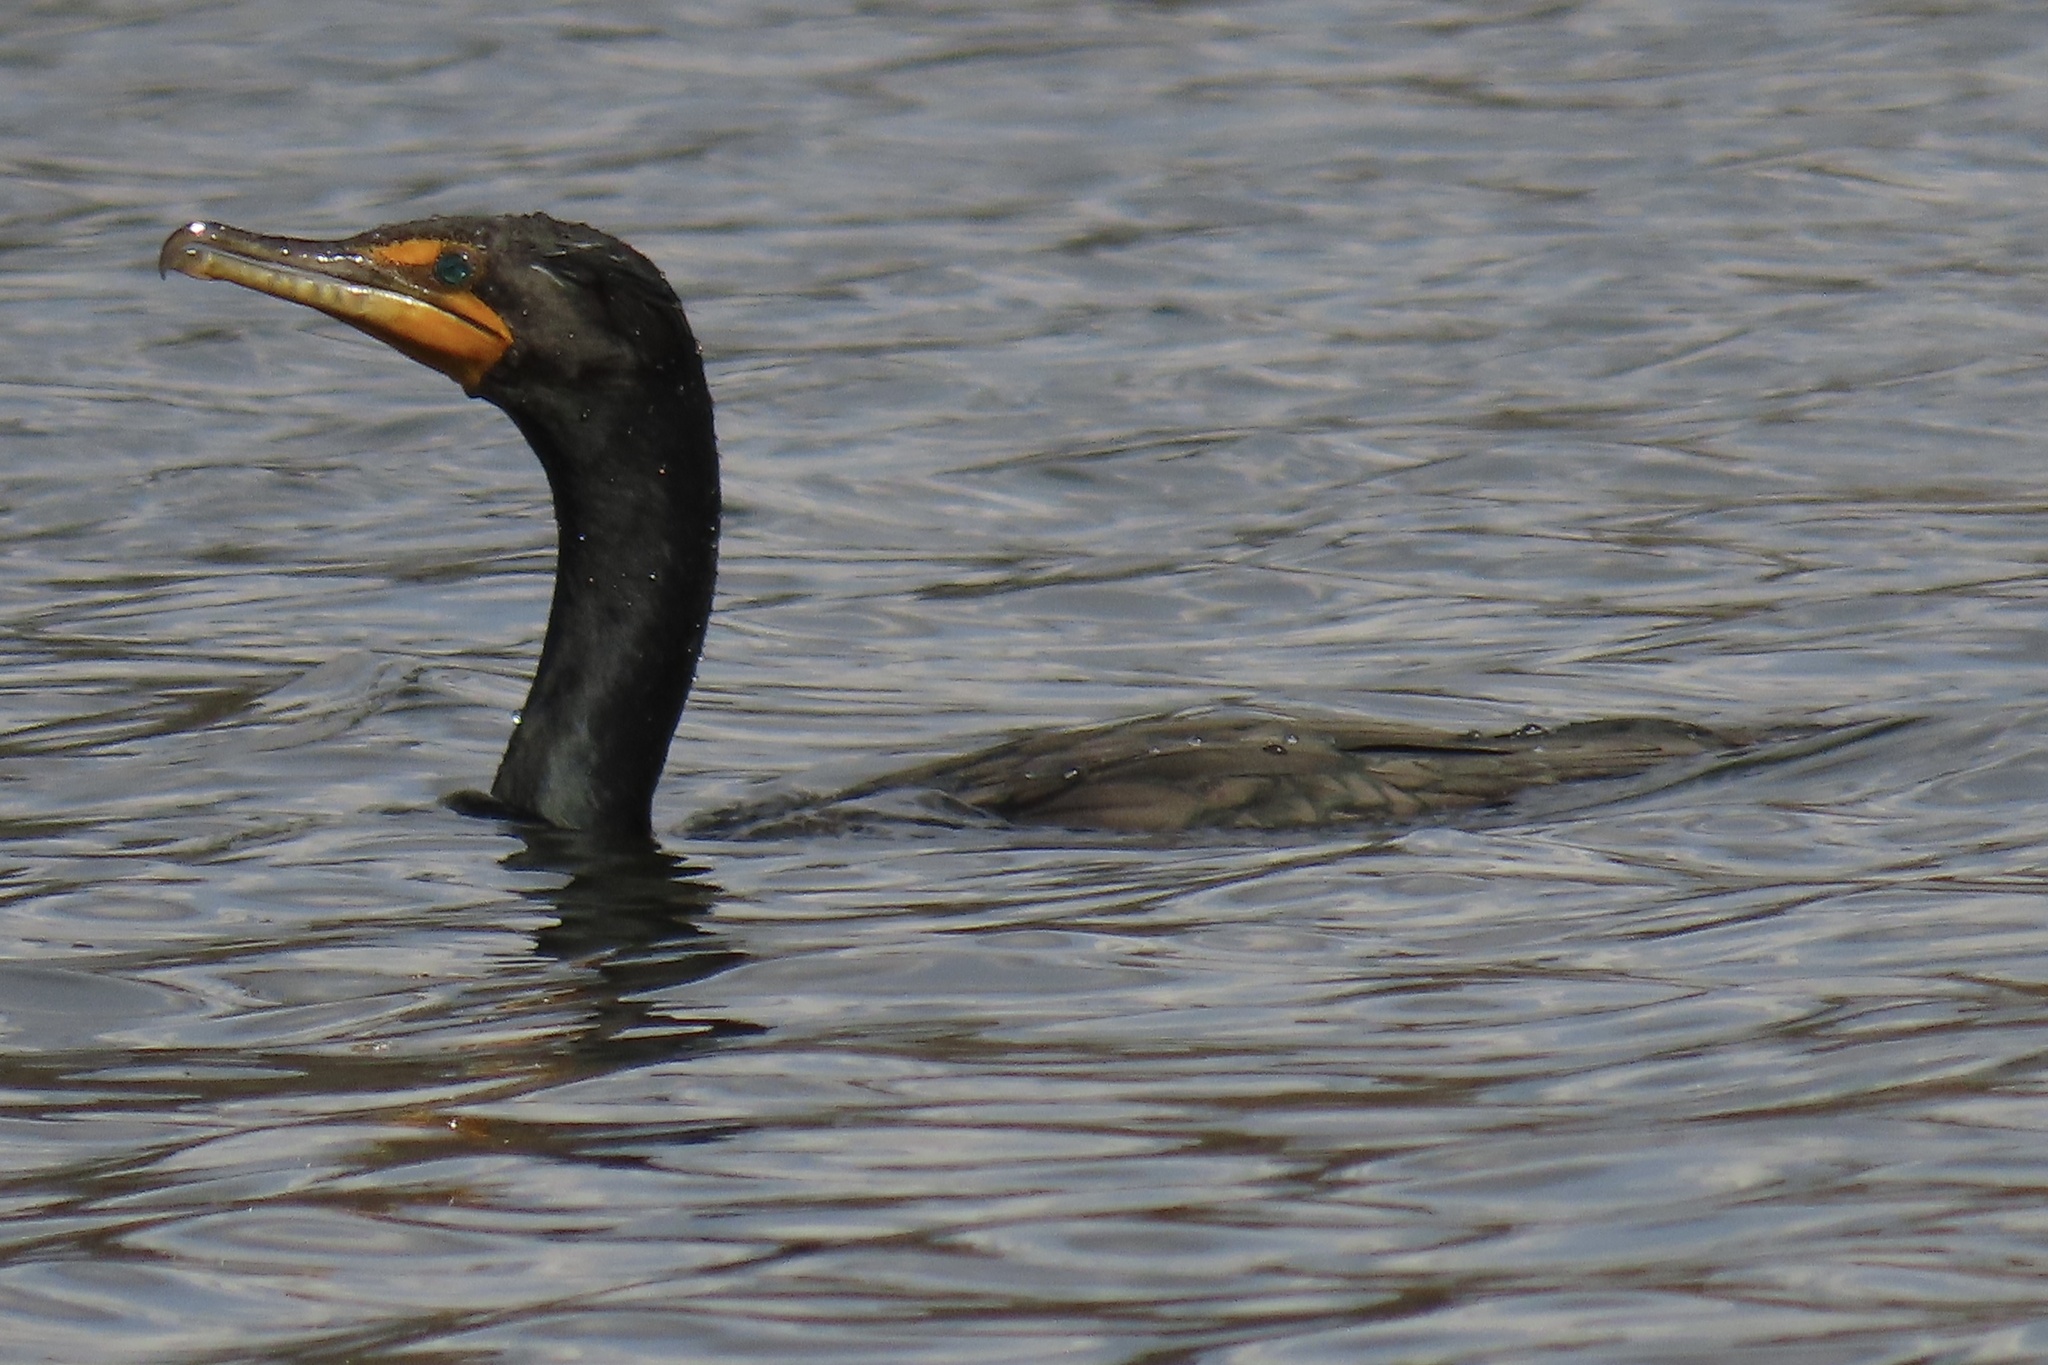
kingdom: Animalia
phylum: Chordata
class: Aves
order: Suliformes
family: Phalacrocoracidae
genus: Phalacrocorax
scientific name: Phalacrocorax auritus
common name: Double-crested cormorant
